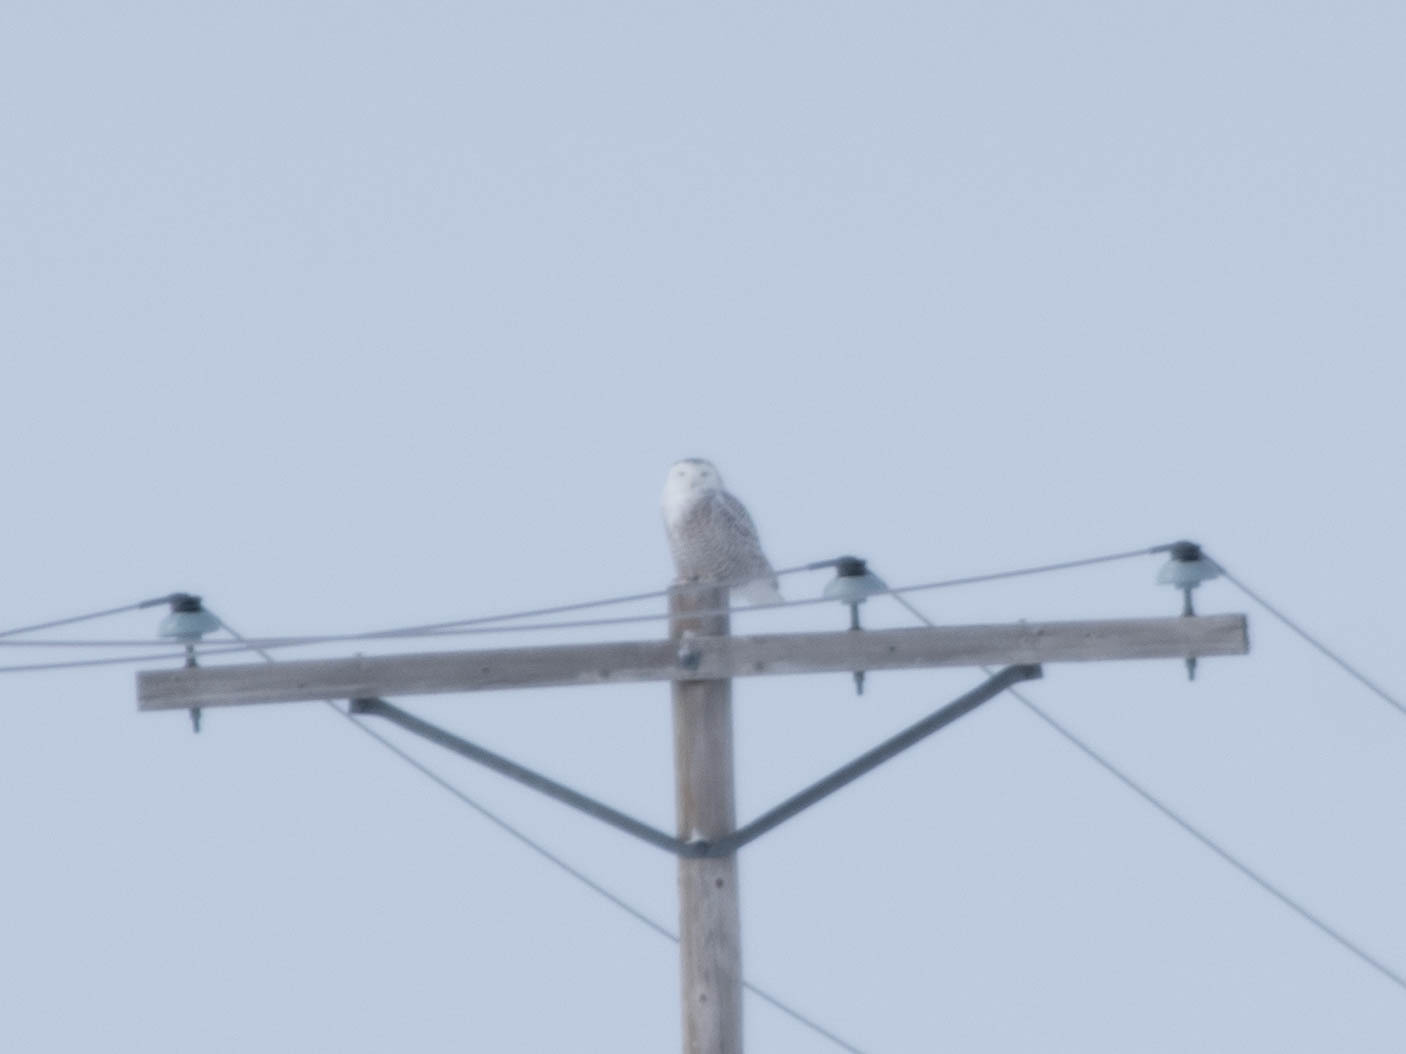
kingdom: Animalia
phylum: Chordata
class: Aves
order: Strigiformes
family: Strigidae
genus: Bubo
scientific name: Bubo scandiacus
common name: Snowy owl
